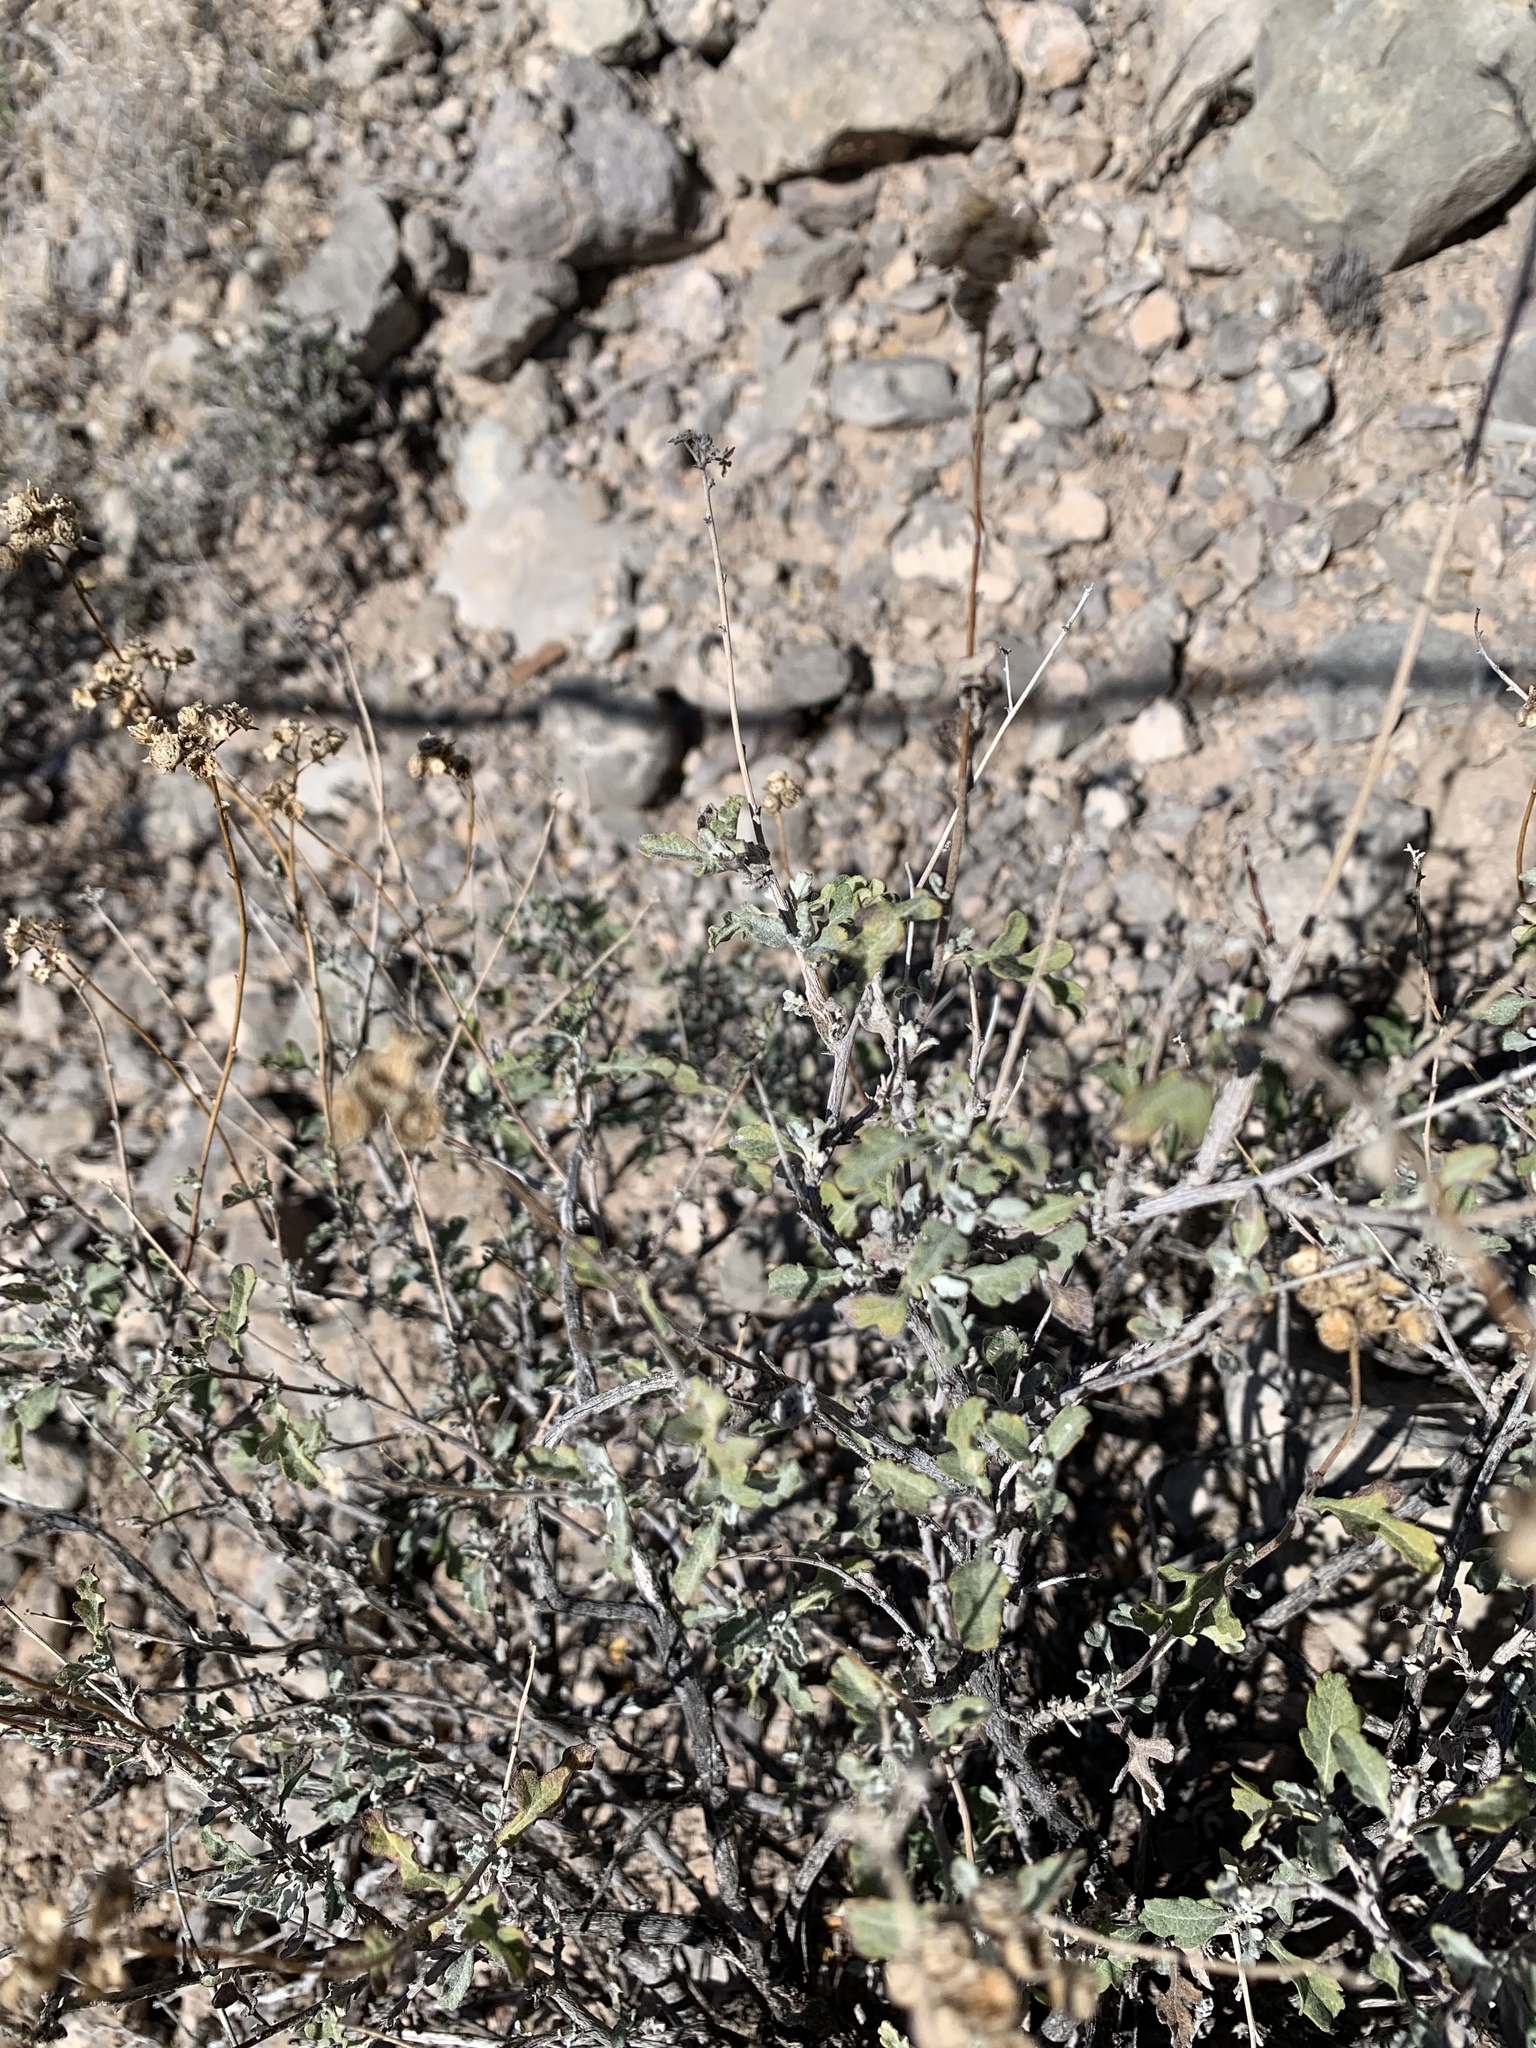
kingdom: Plantae
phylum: Tracheophyta
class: Magnoliopsida
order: Asterales
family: Asteraceae
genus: Parthenium
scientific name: Parthenium incanum
